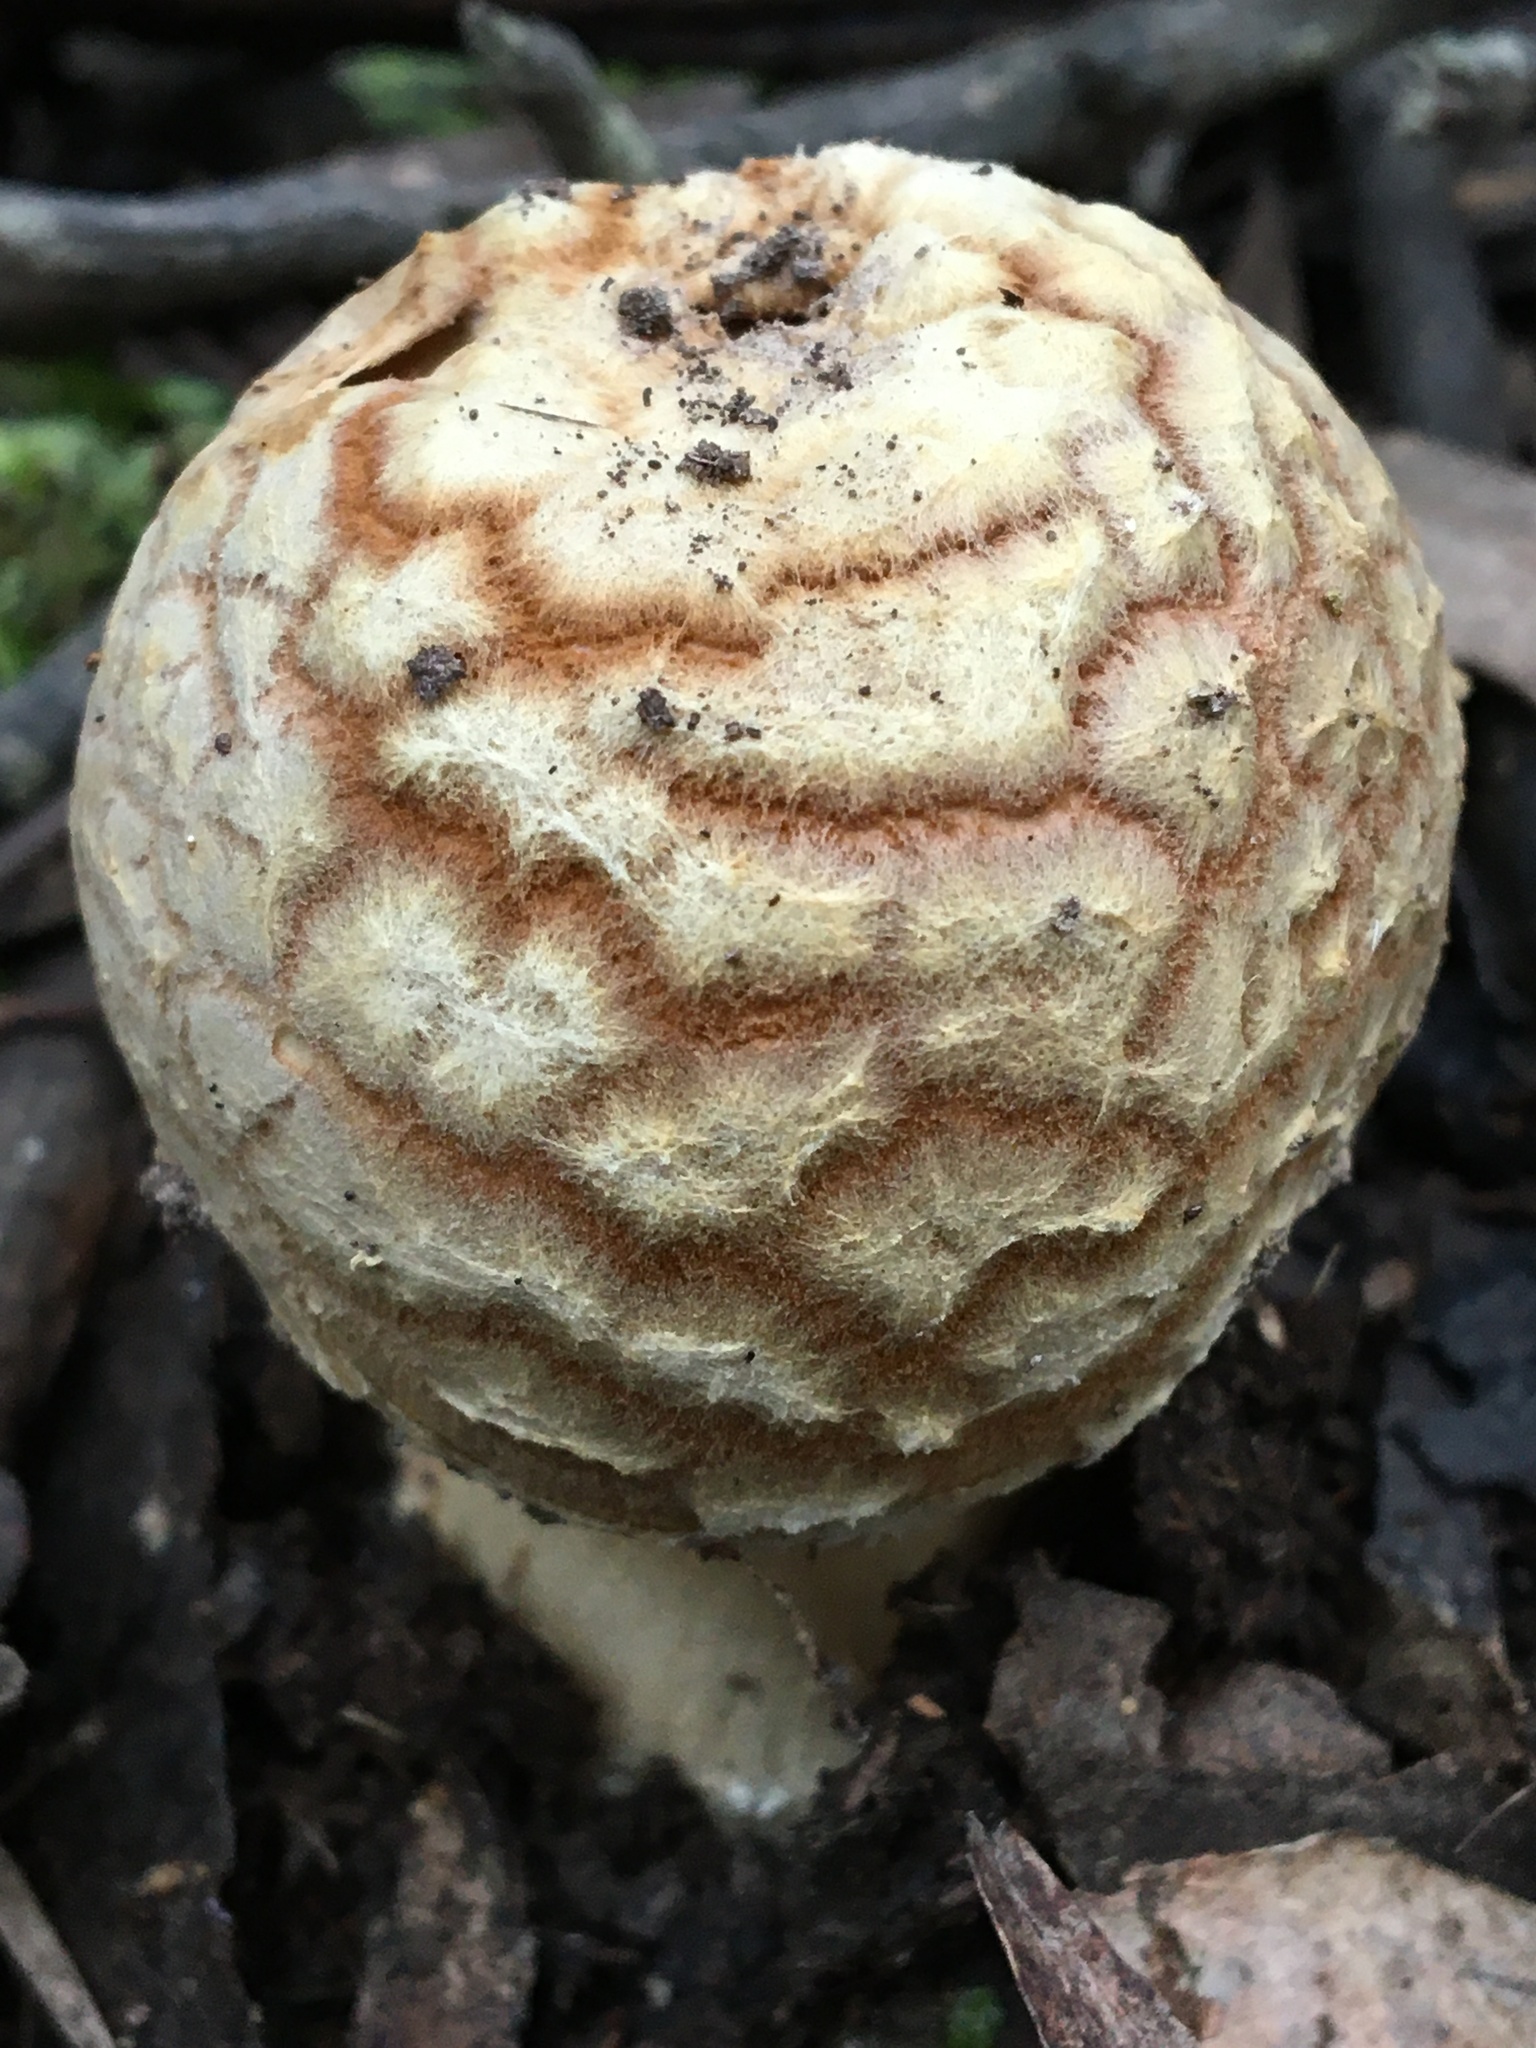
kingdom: Fungi
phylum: Basidiomycota
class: Agaricomycetes
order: Agaricales
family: Amanitaceae
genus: Amanita
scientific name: Amanita armeniaca
